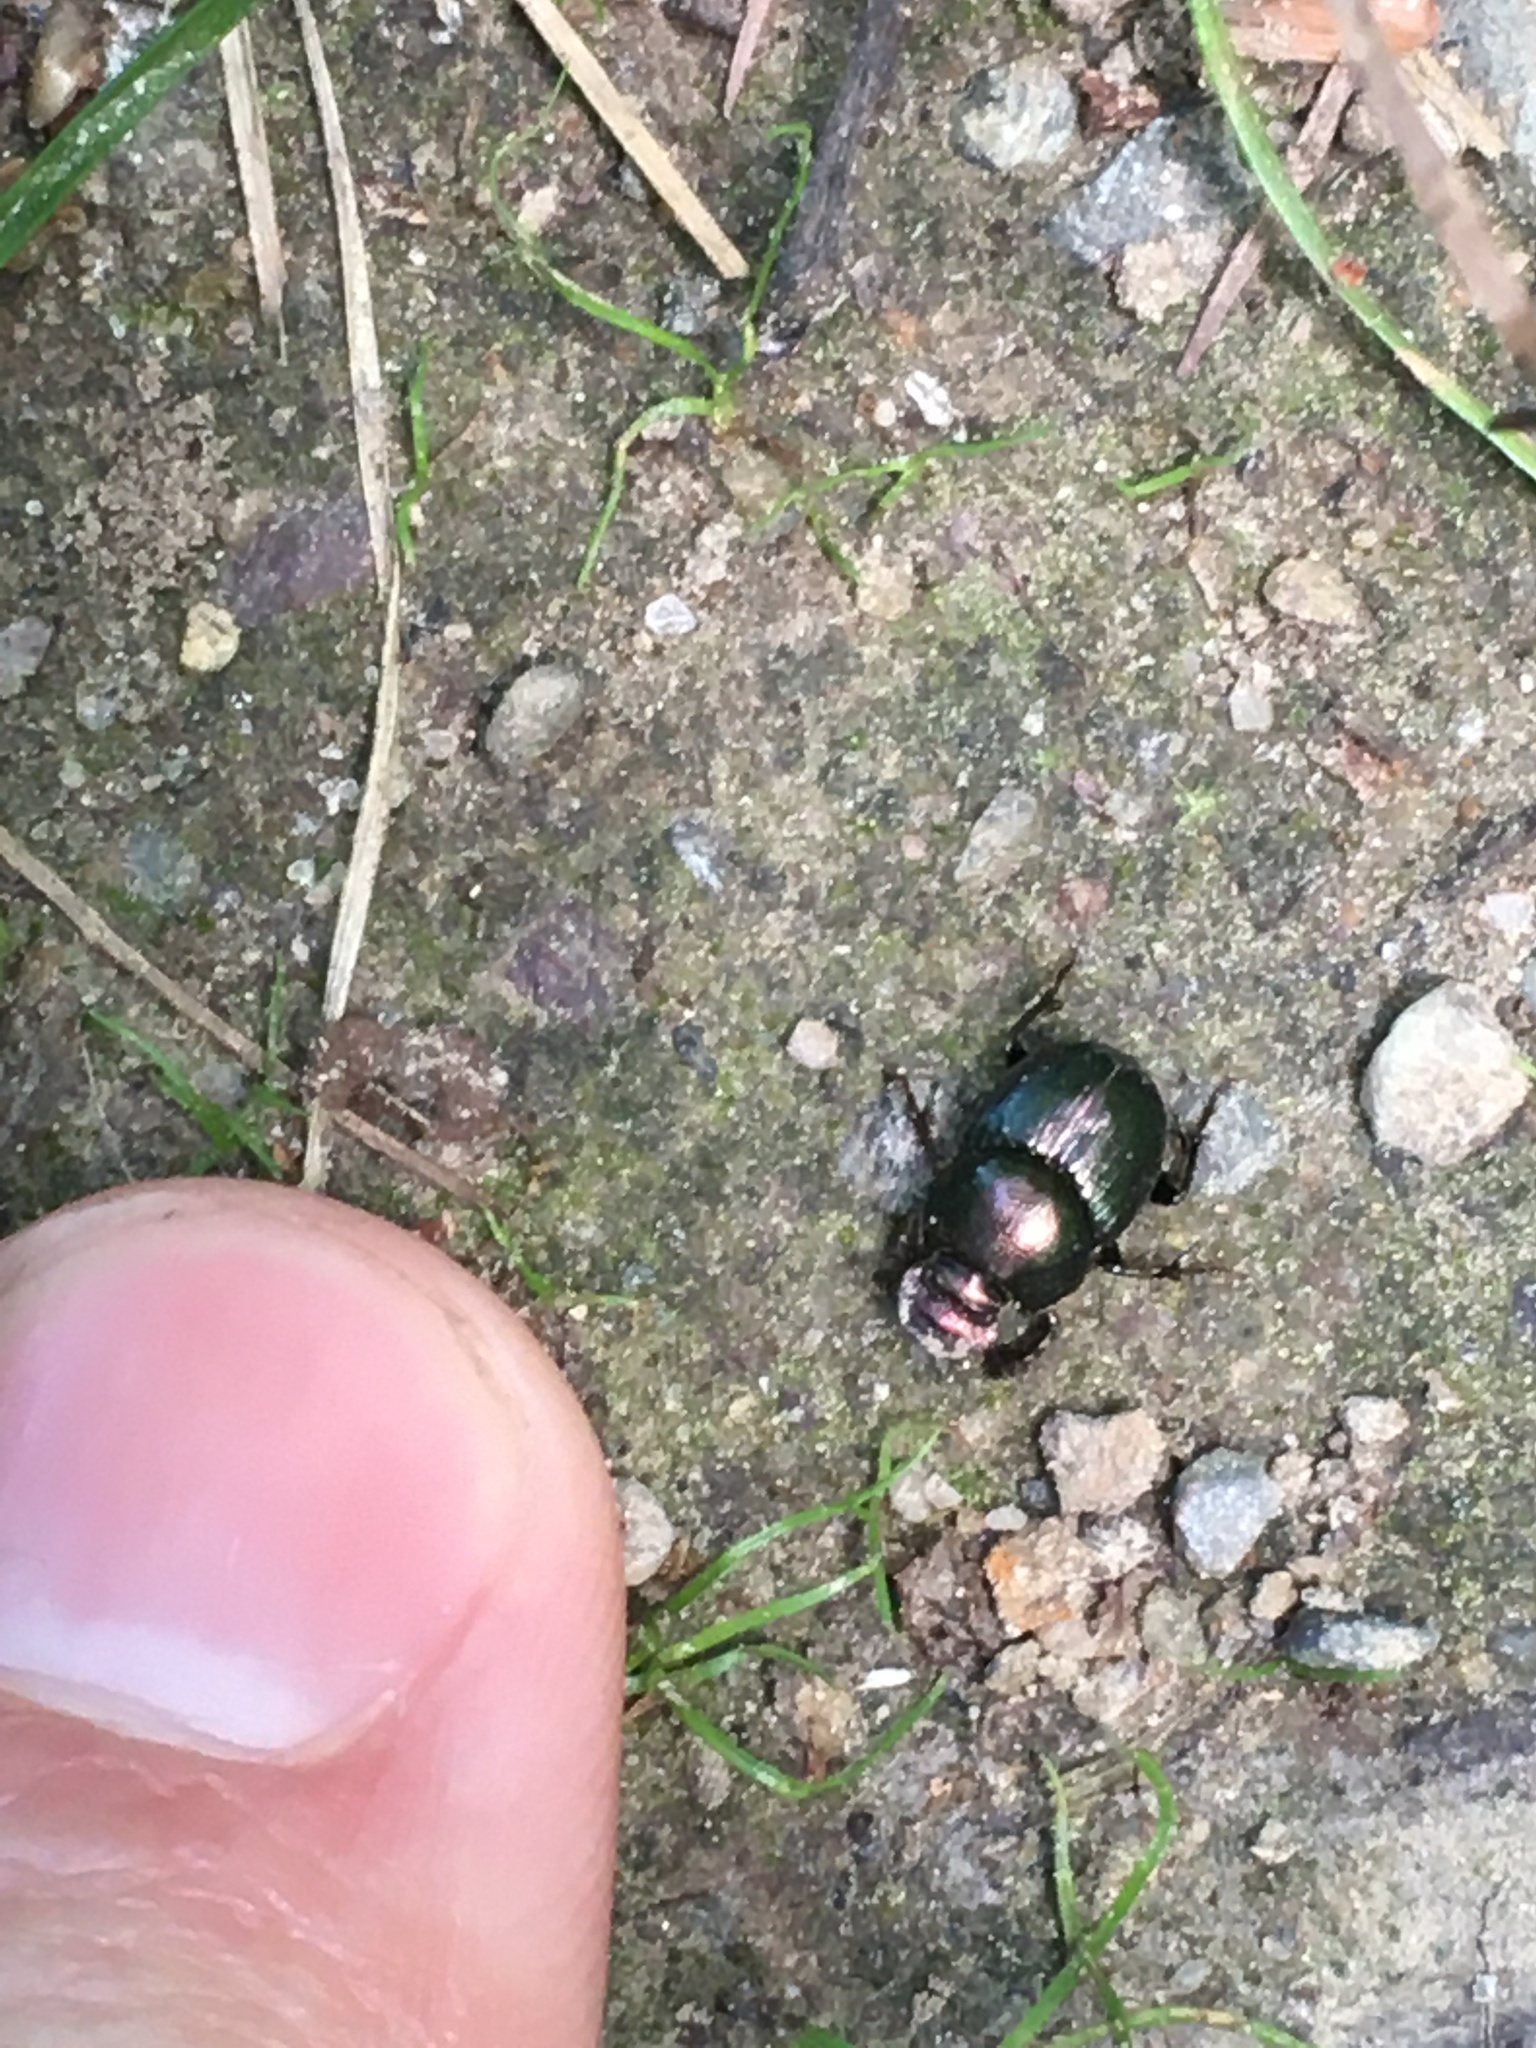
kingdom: Animalia
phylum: Arthropoda
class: Insecta
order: Coleoptera
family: Scarabaeidae
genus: Onthophagus
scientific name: Onthophagus orpheus
